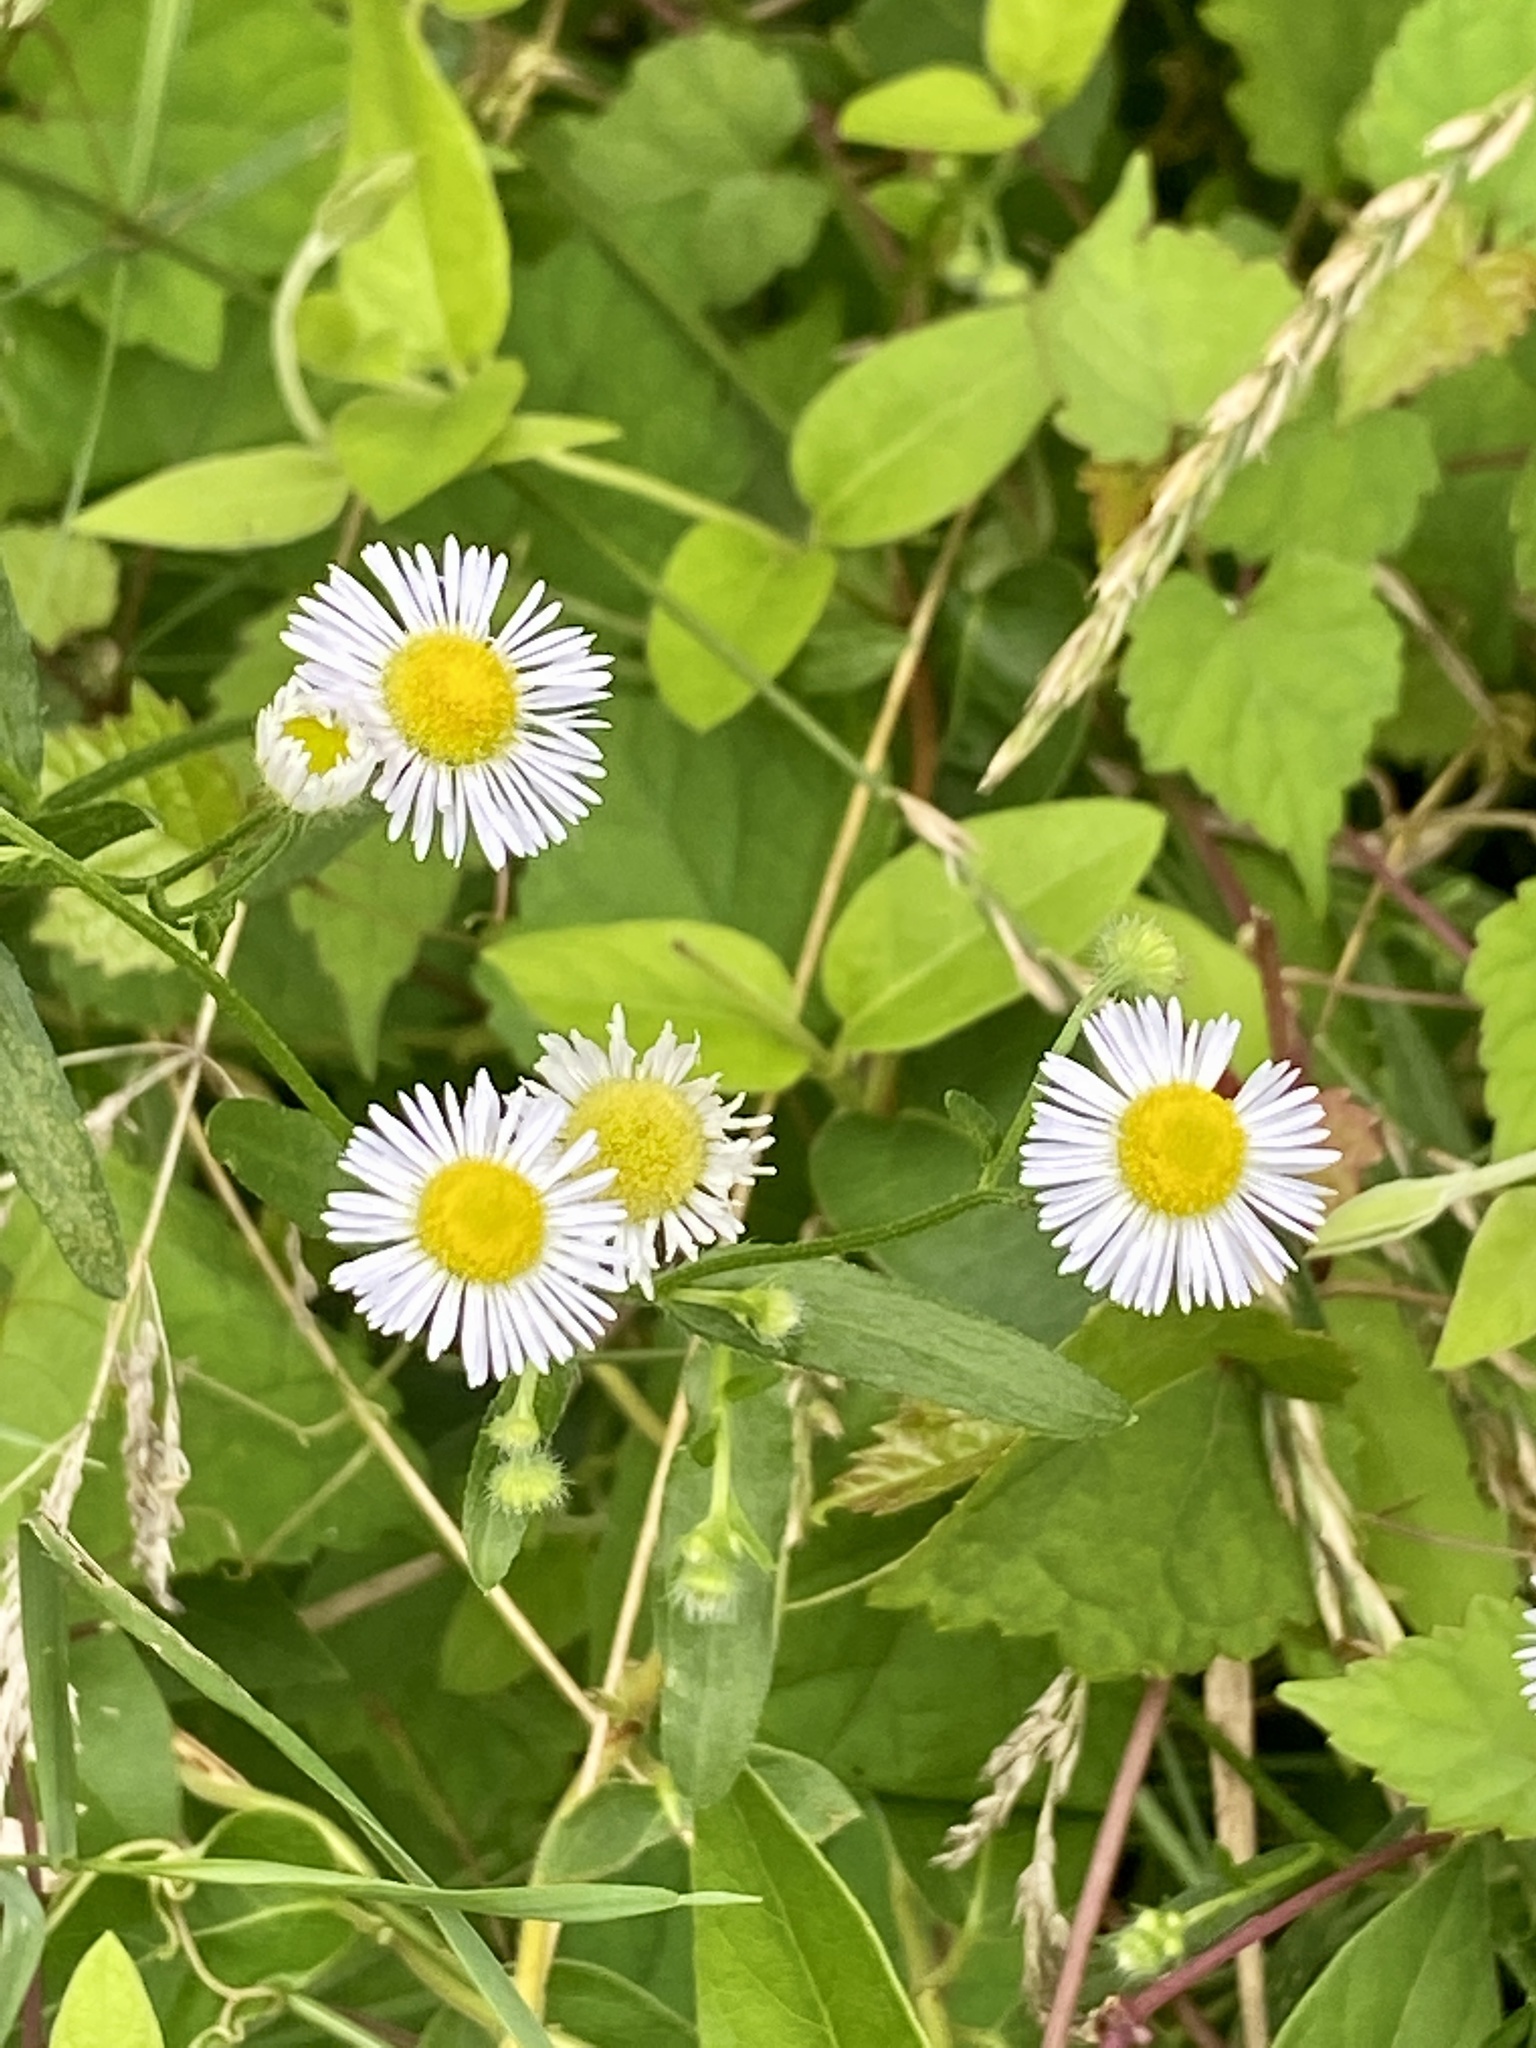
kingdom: Plantae
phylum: Tracheophyta
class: Magnoliopsida
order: Asterales
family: Asteraceae
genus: Erigeron
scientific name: Erigeron strigosus
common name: Common eastern fleabane
